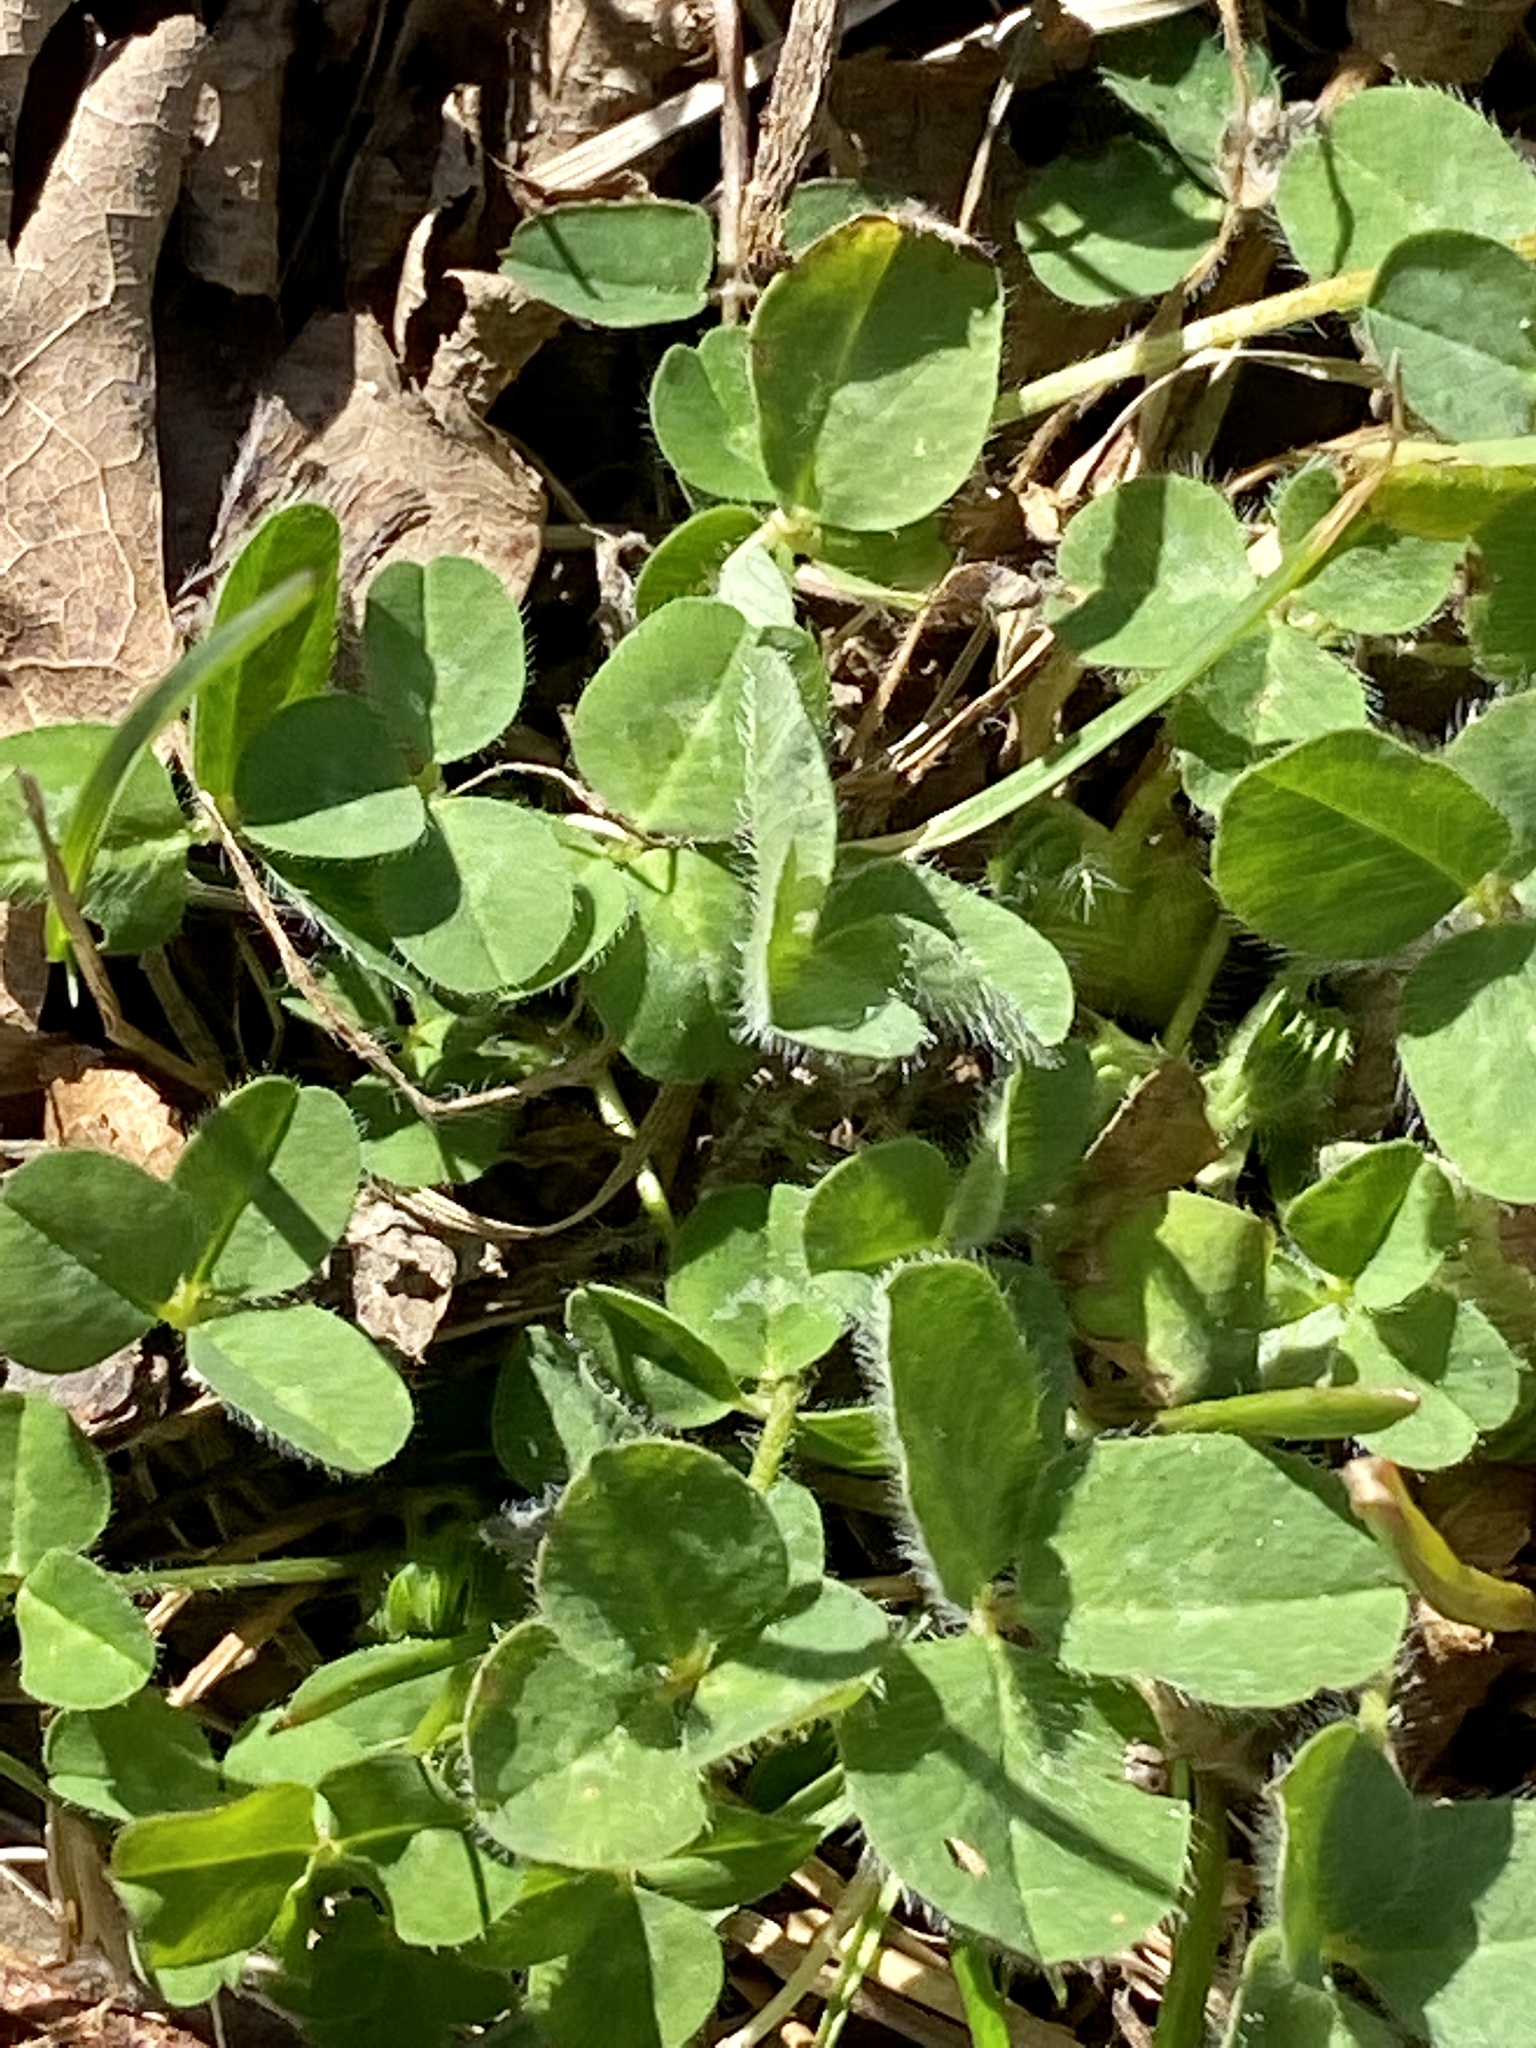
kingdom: Plantae
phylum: Tracheophyta
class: Magnoliopsida
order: Fabales
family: Fabaceae
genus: Trifolium
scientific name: Trifolium pratense
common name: Red clover
